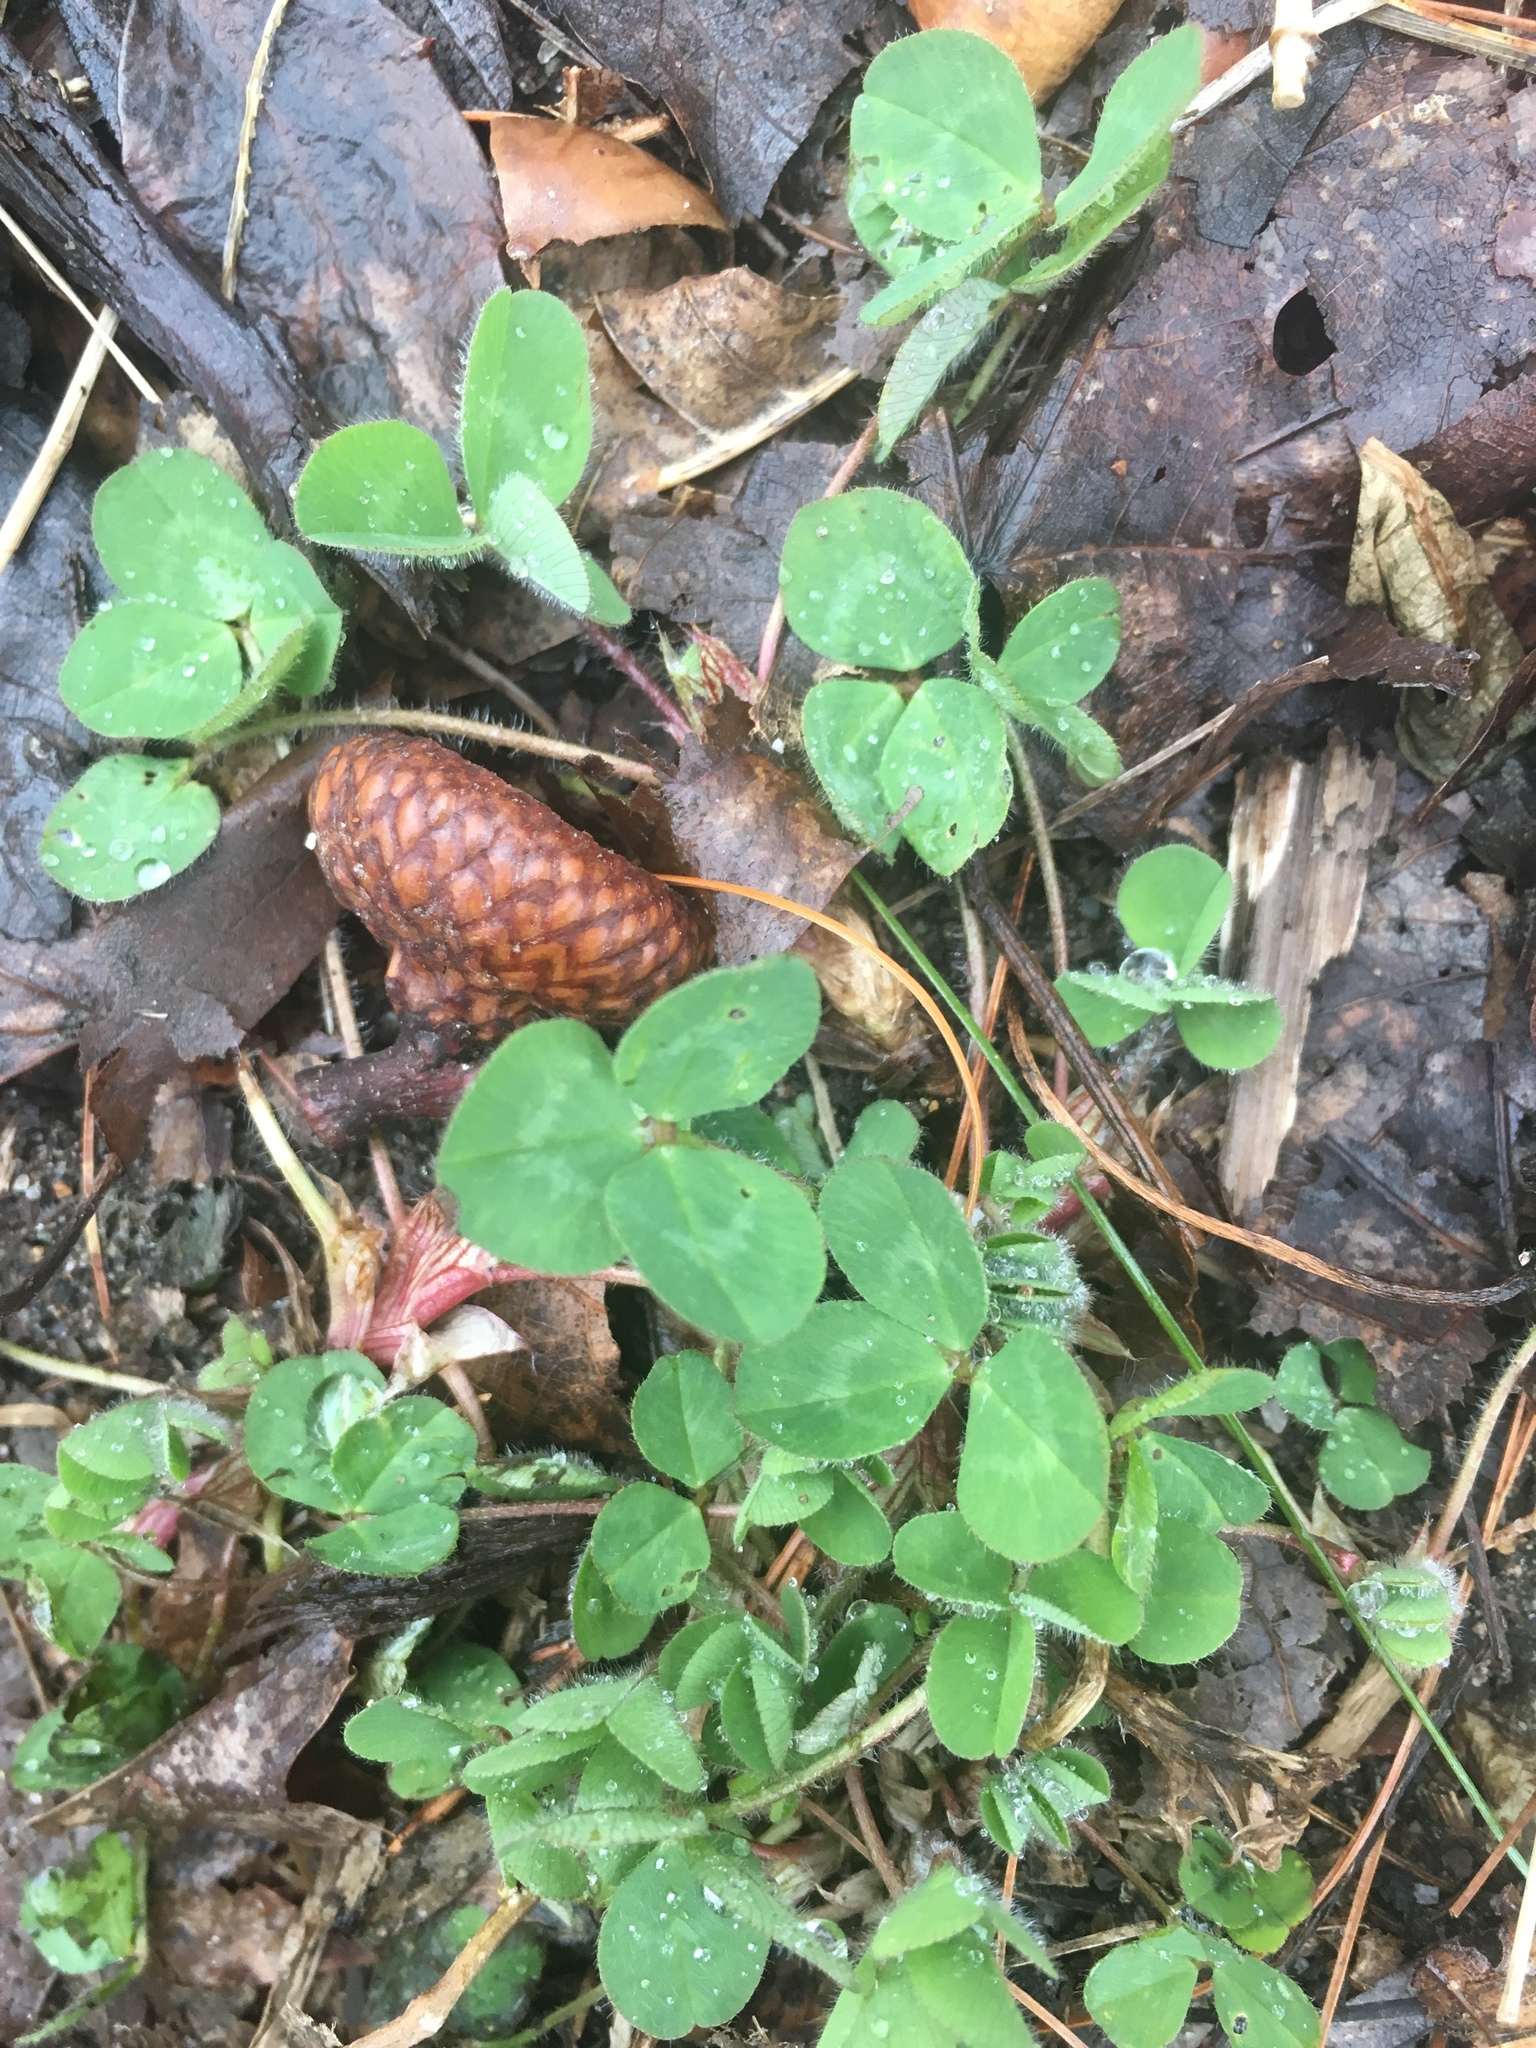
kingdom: Plantae
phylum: Tracheophyta
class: Magnoliopsida
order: Fabales
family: Fabaceae
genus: Trifolium
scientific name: Trifolium pratense
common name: Red clover
